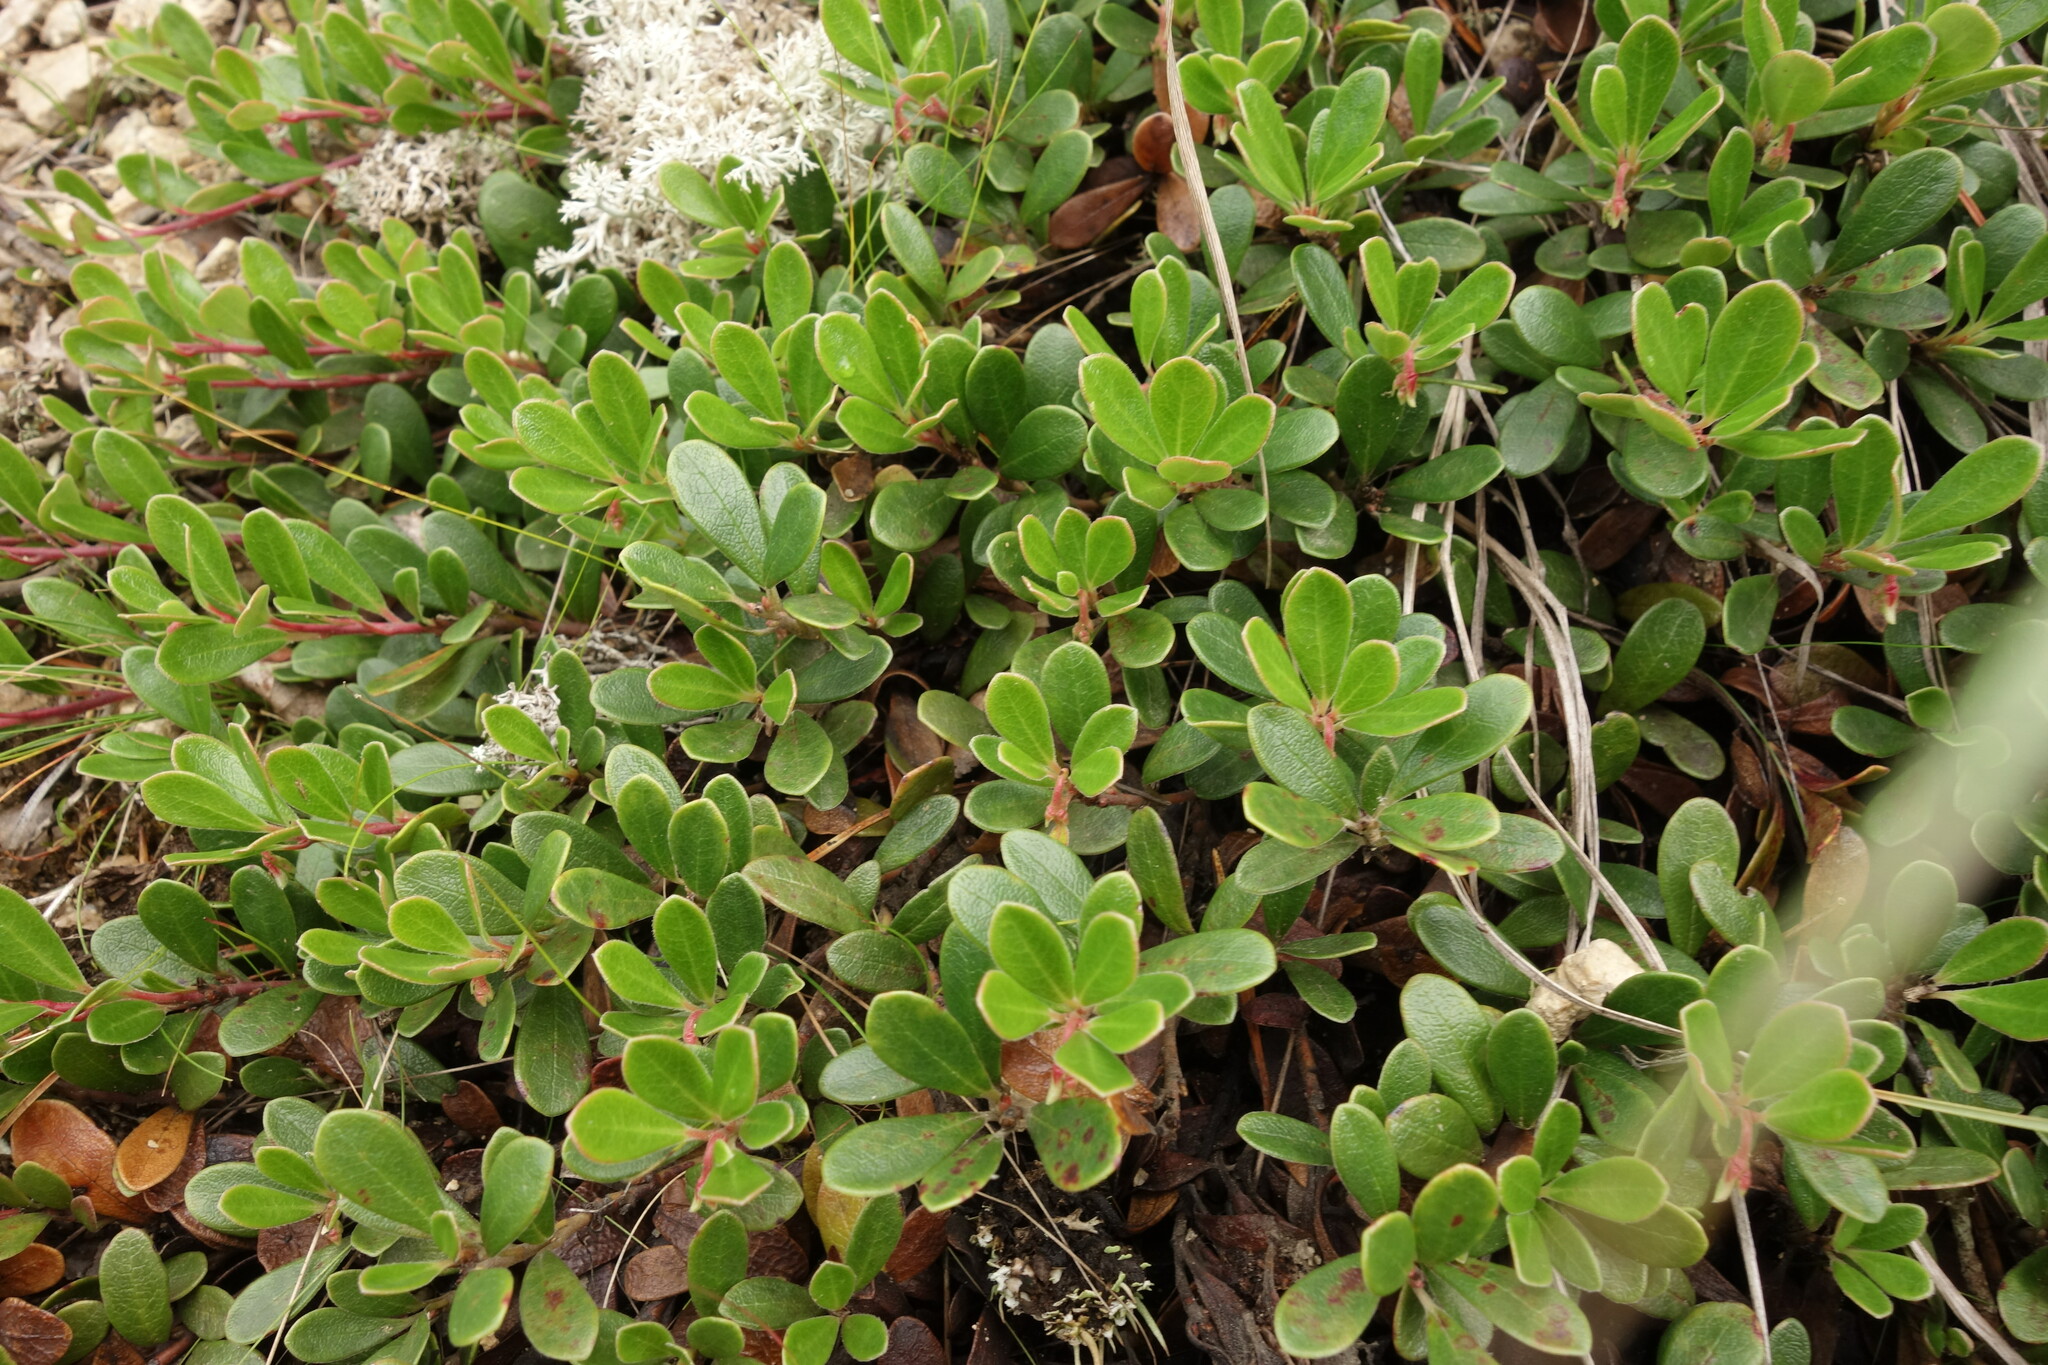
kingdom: Plantae
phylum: Tracheophyta
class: Magnoliopsida
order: Ericales
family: Ericaceae
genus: Arctostaphylos
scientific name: Arctostaphylos uva-ursi
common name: Bearberry
